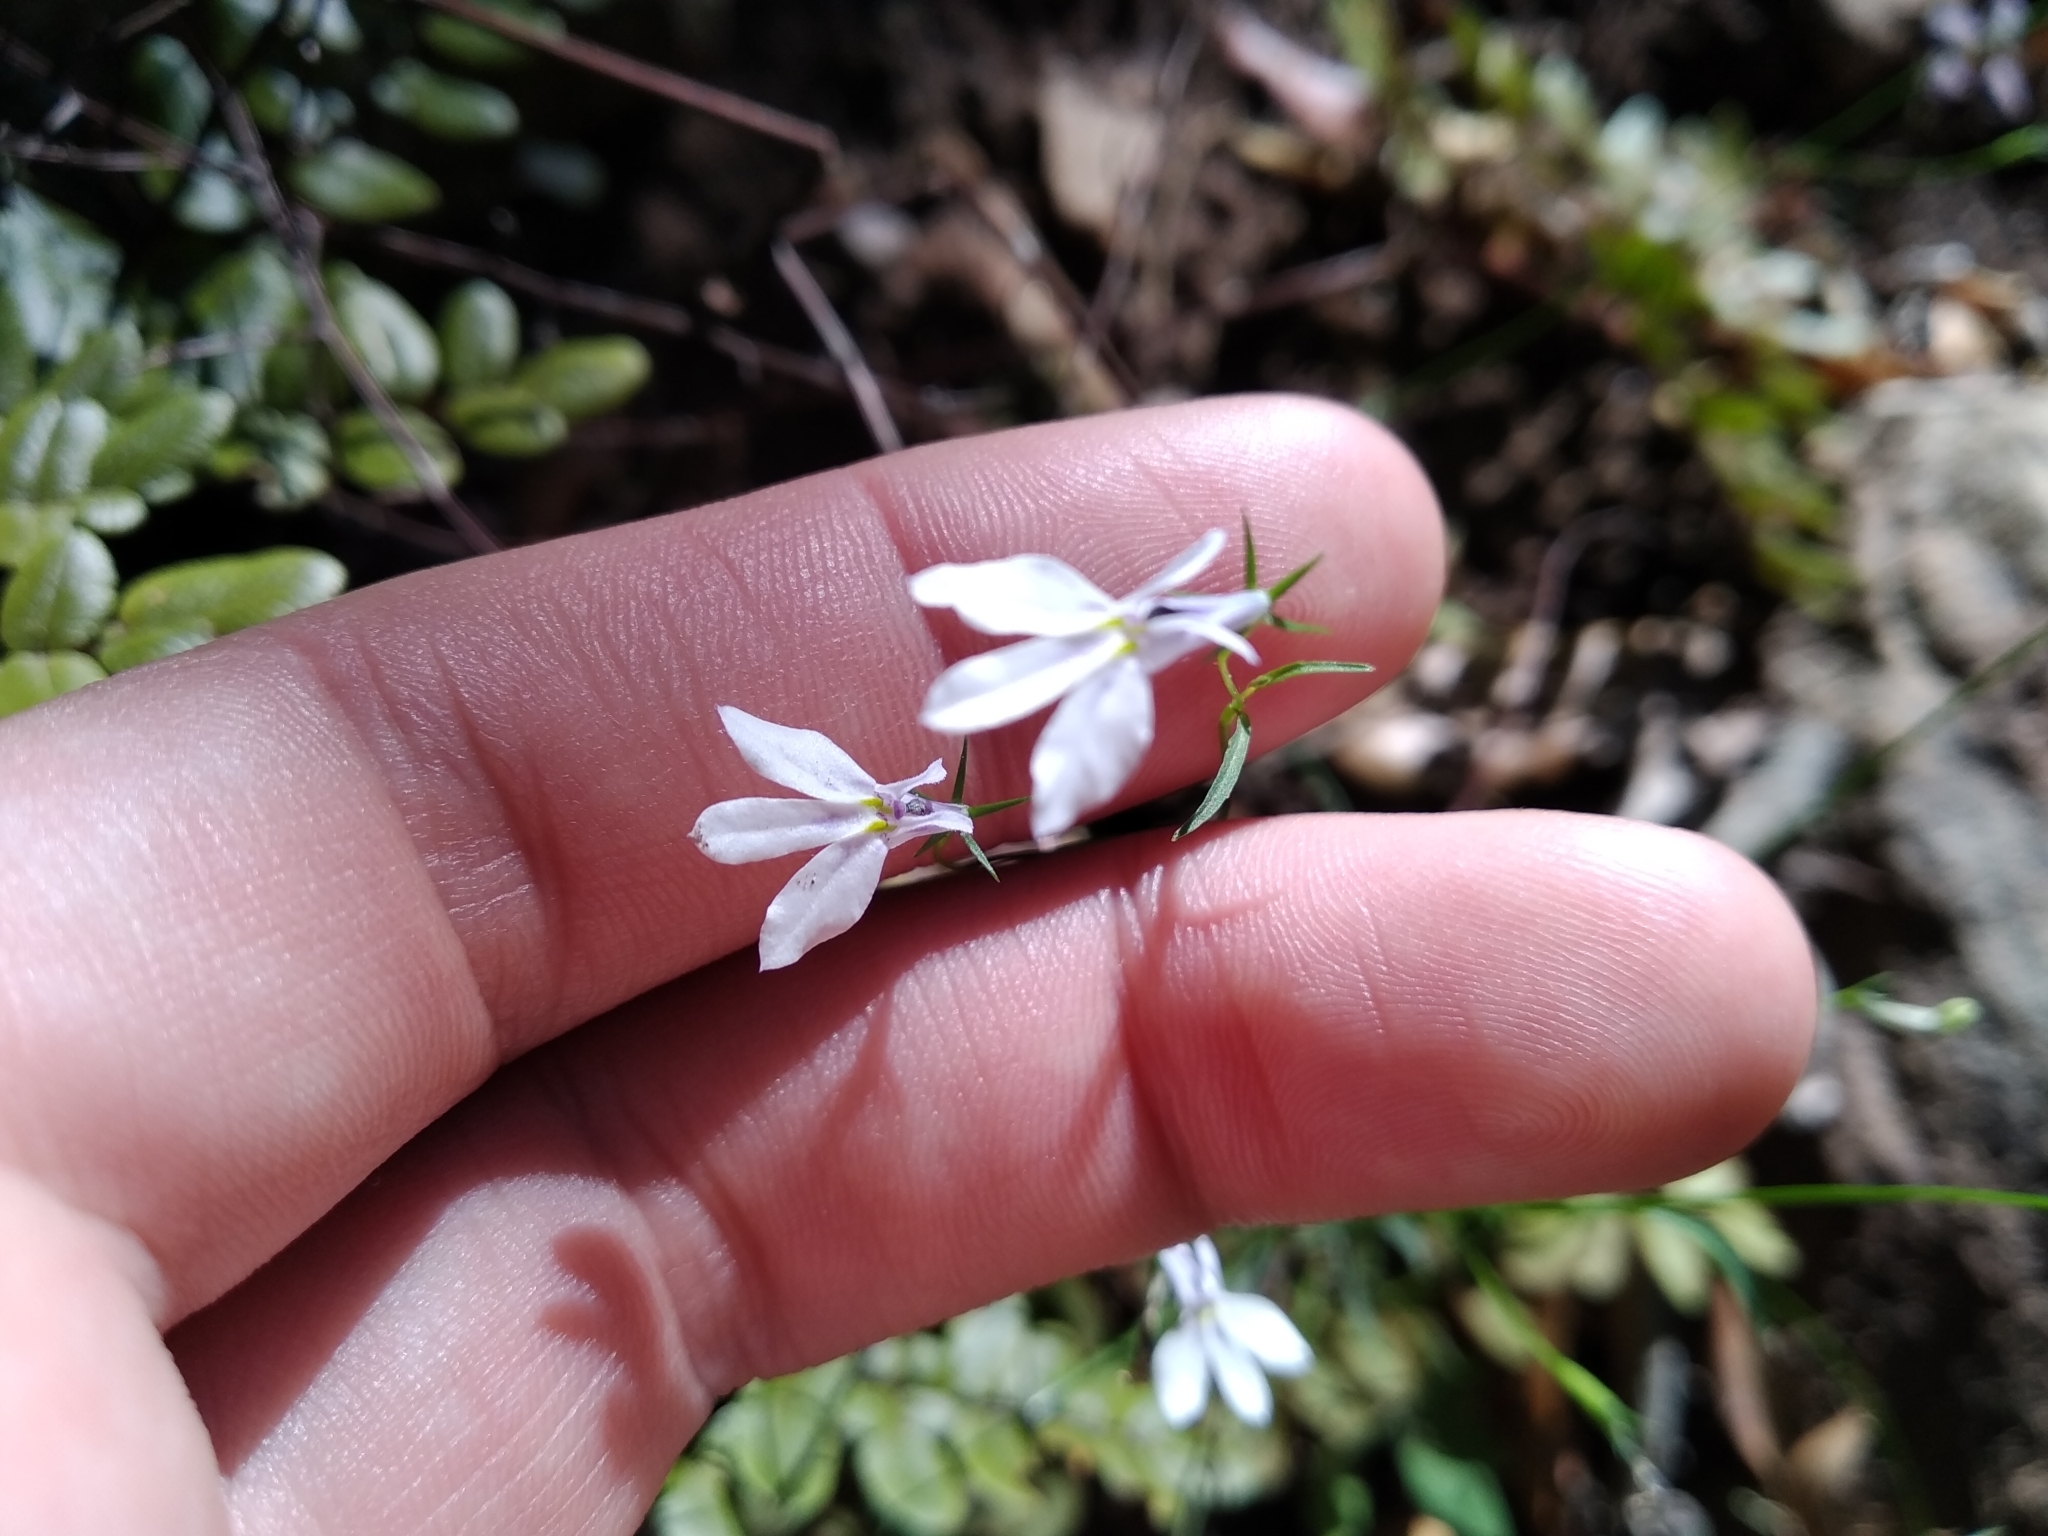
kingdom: Plantae
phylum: Tracheophyta
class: Magnoliopsida
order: Asterales
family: Campanulaceae
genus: Lobelia
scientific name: Lobelia pubescens
